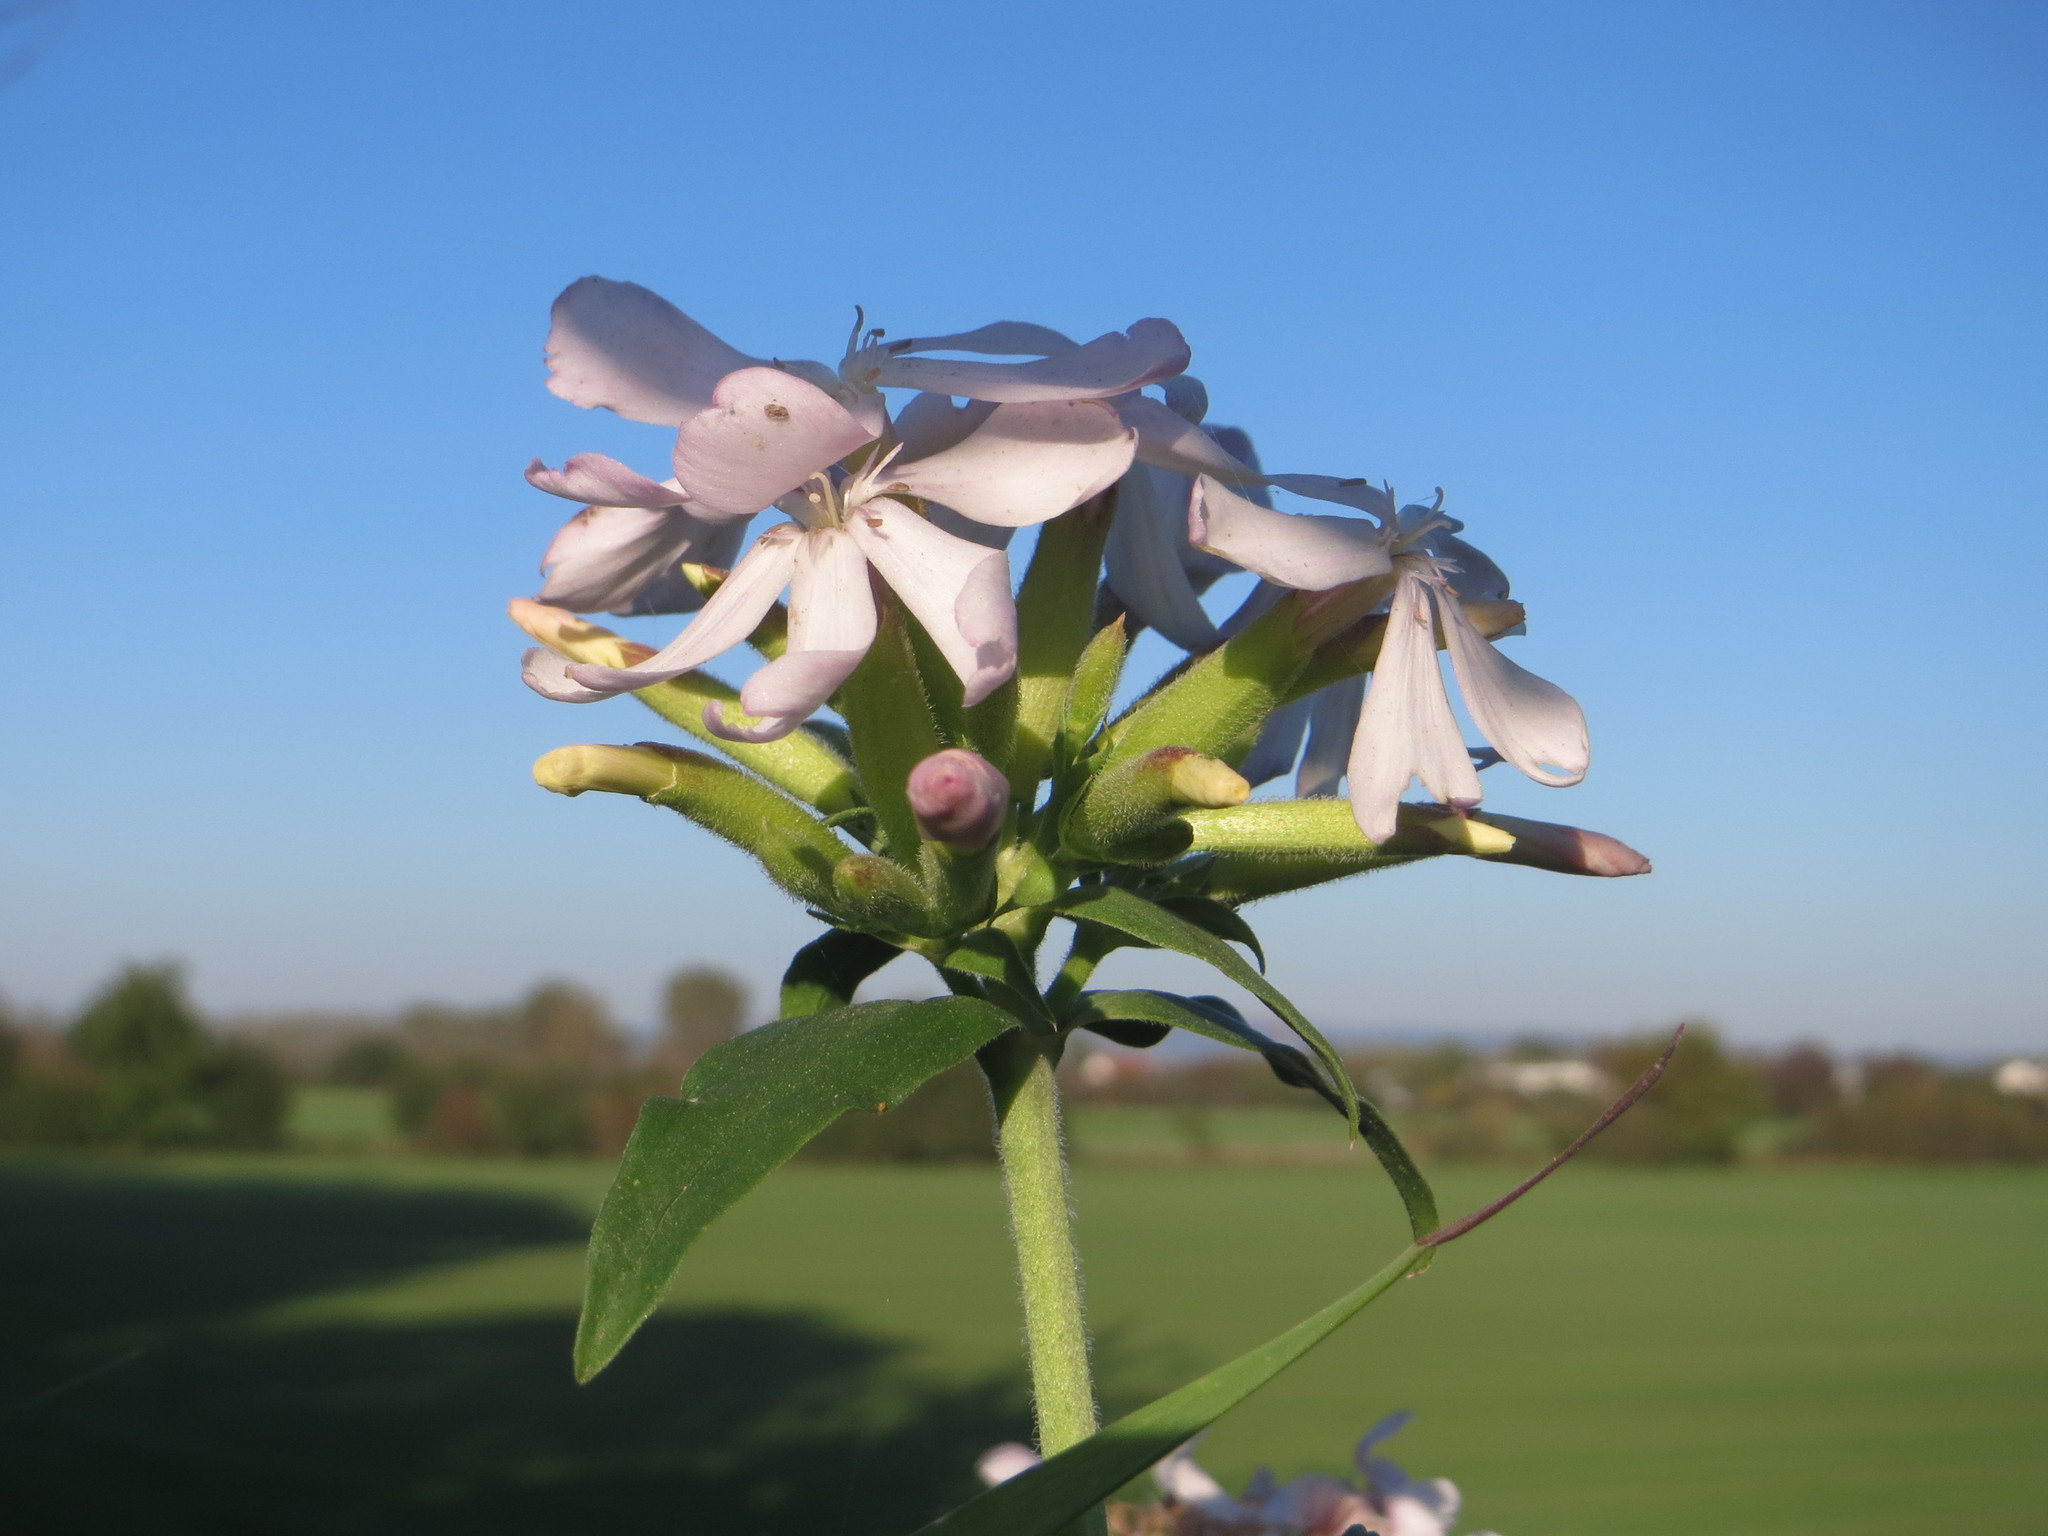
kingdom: Plantae
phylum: Tracheophyta
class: Magnoliopsida
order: Caryophyllales
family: Caryophyllaceae
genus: Saponaria
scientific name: Saponaria officinalis
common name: Soapwort
